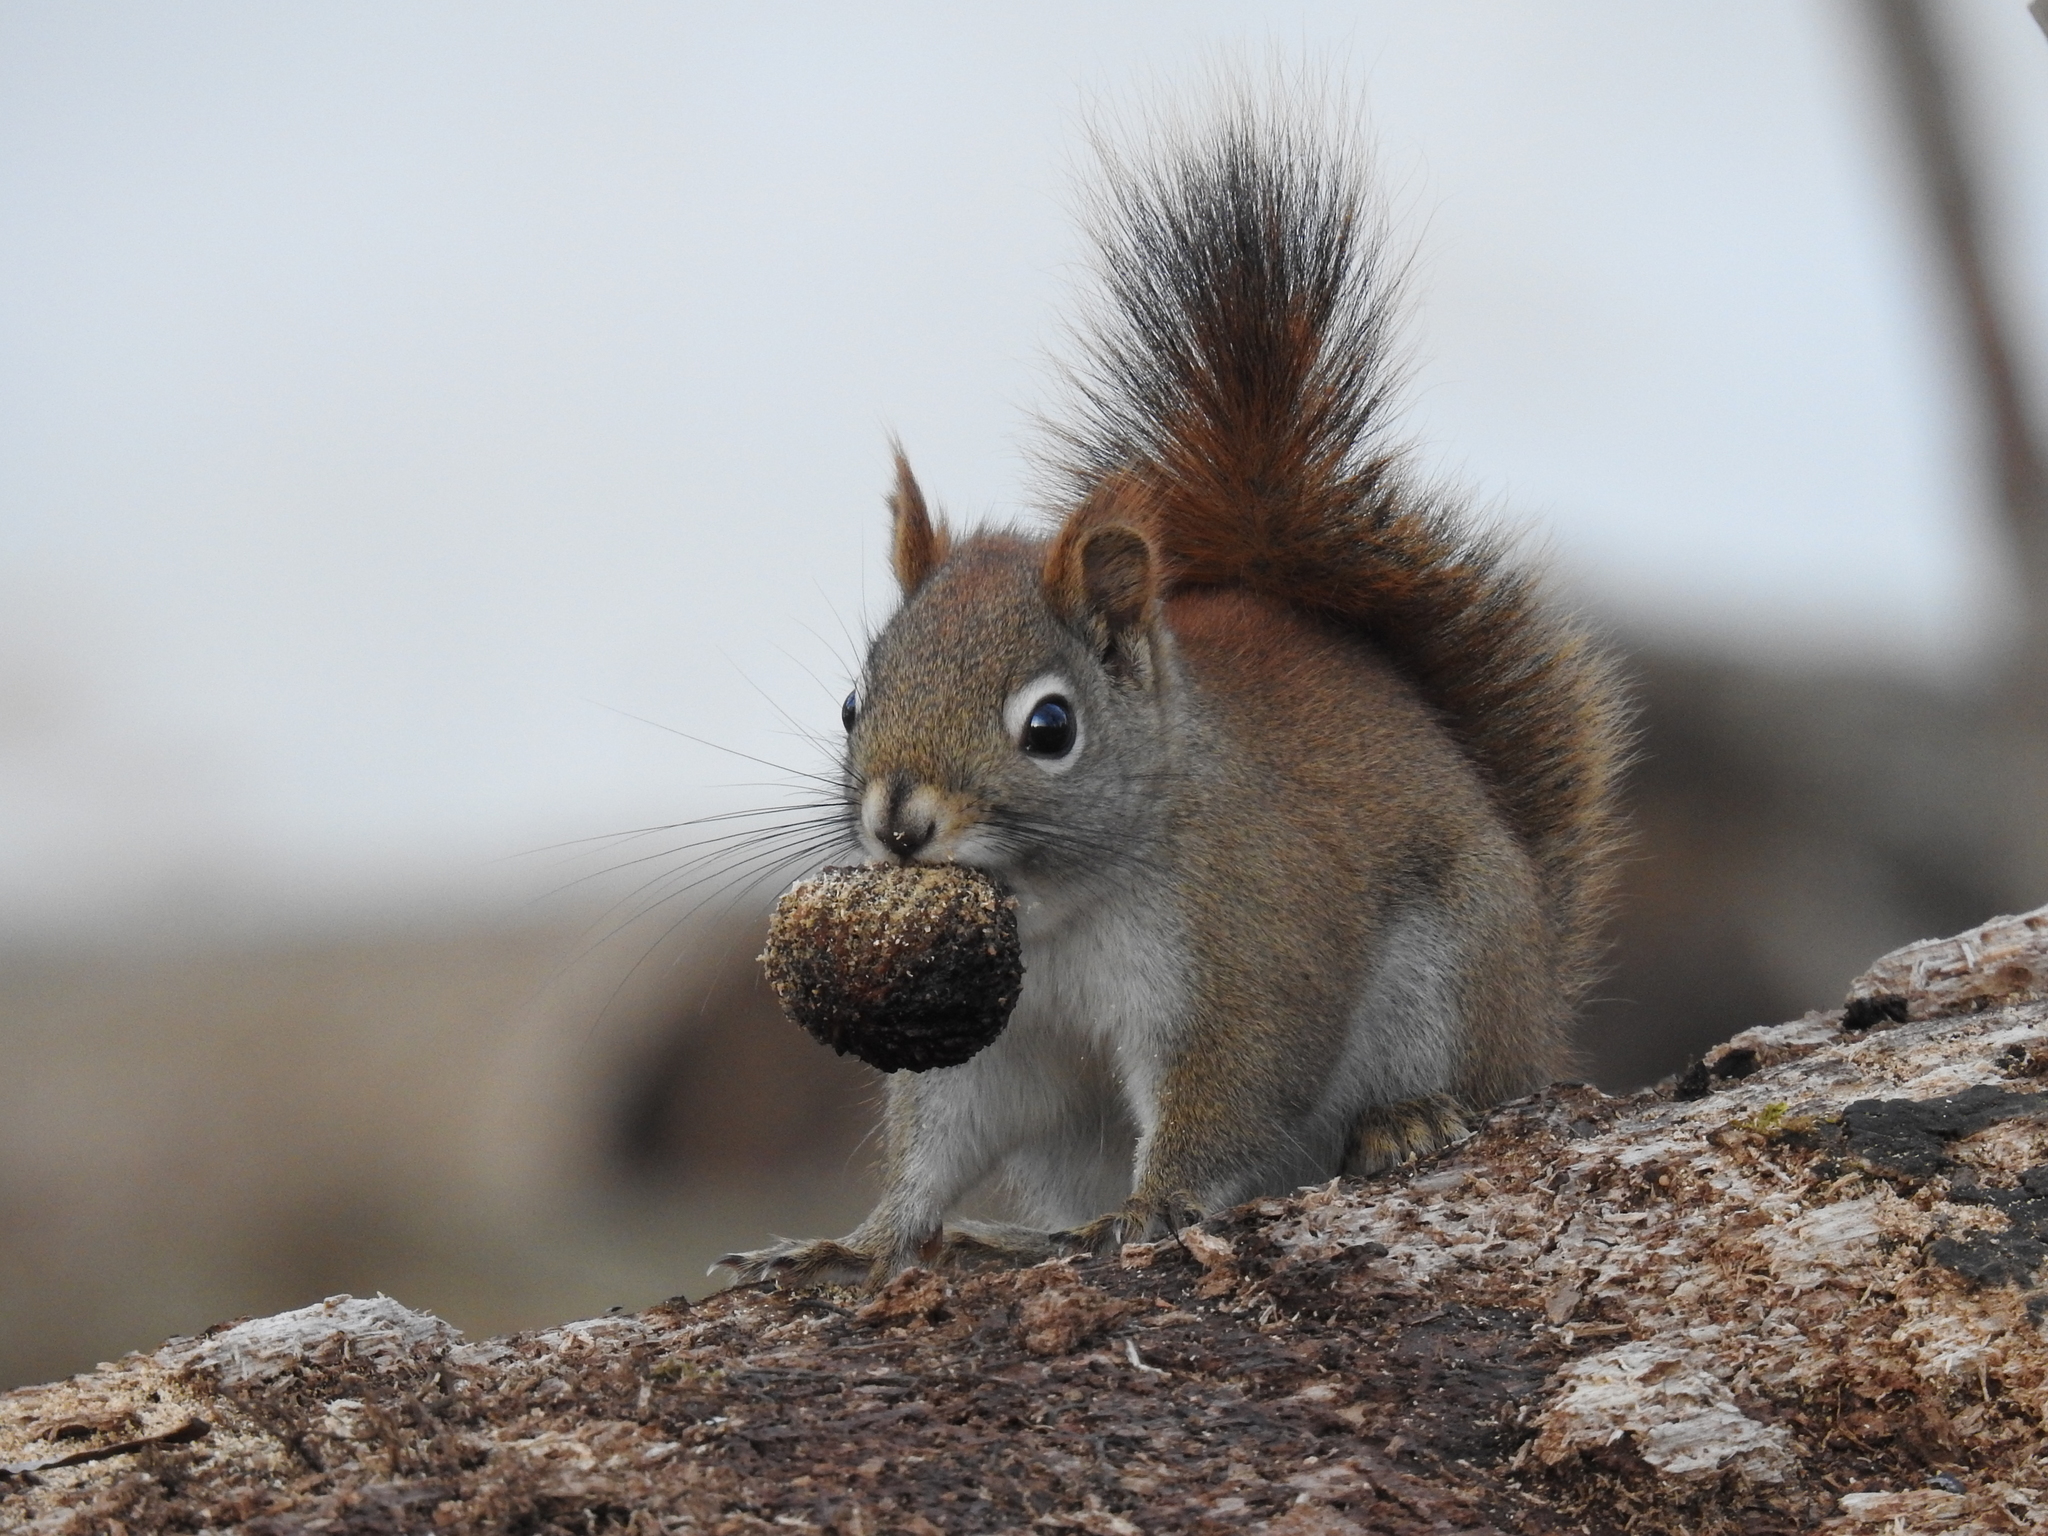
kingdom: Animalia
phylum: Chordata
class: Mammalia
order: Rodentia
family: Sciuridae
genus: Tamiasciurus
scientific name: Tamiasciurus hudsonicus
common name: Red squirrel
